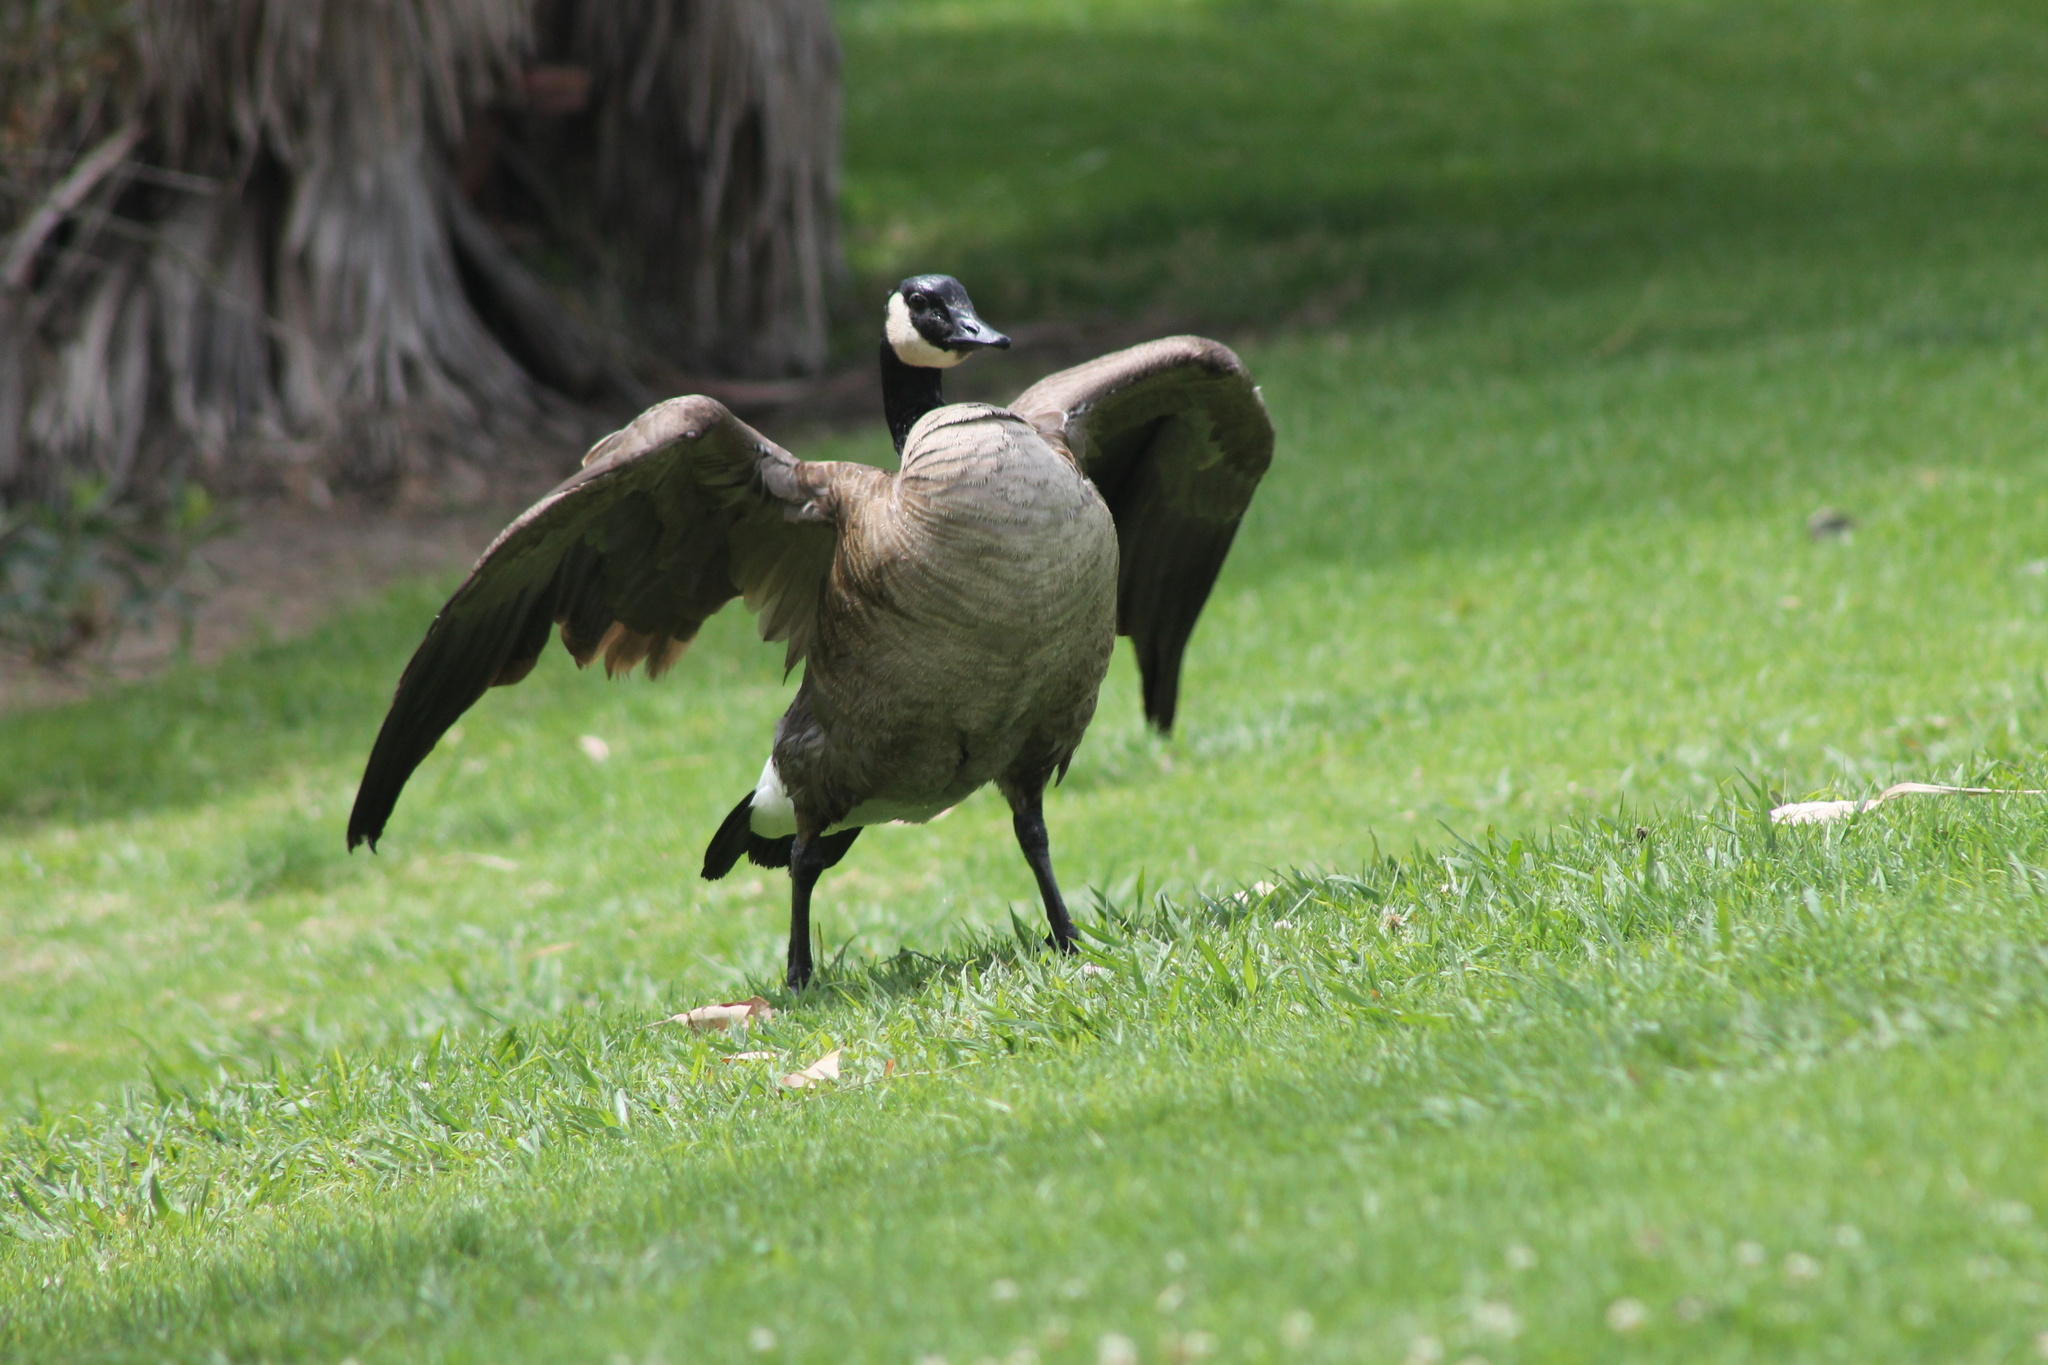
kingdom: Animalia
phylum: Chordata
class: Aves
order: Anseriformes
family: Anatidae
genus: Branta
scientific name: Branta canadensis
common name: Canada goose
